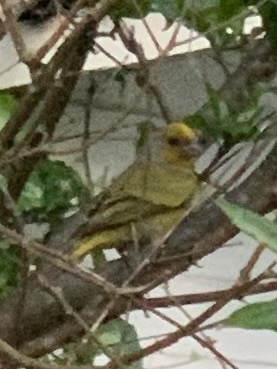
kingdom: Animalia
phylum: Chordata
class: Aves
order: Passeriformes
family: Fringillidae
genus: Serinus
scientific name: Serinus canicollis
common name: Cape canary
